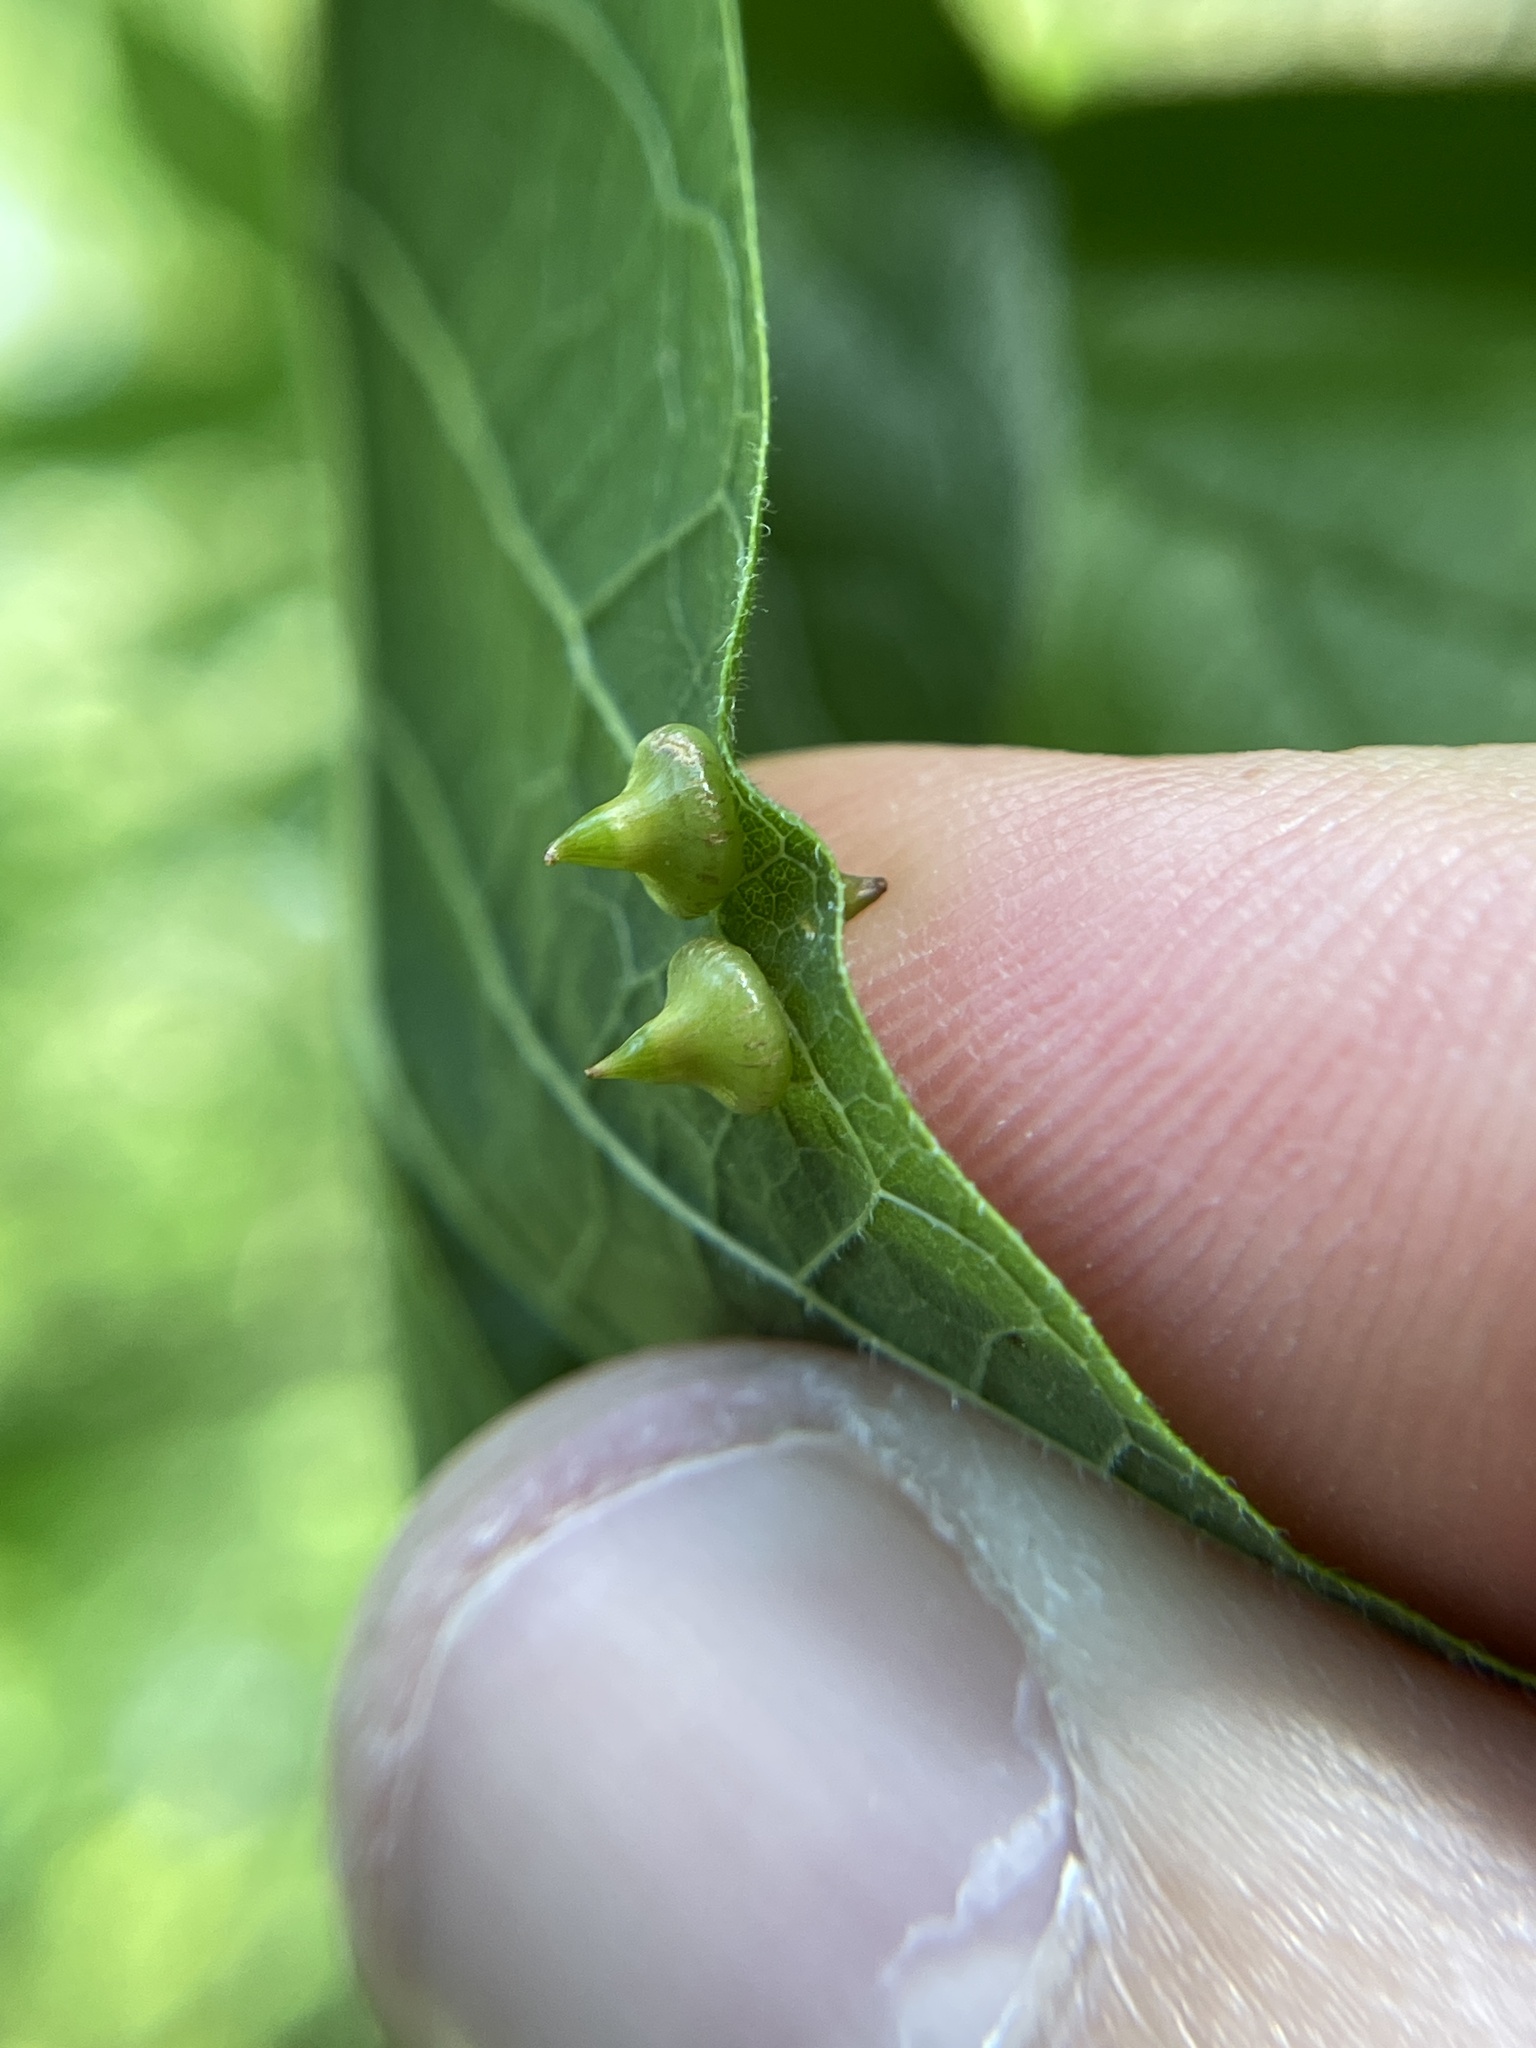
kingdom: Animalia
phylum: Arthropoda
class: Insecta
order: Diptera
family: Cecidomyiidae
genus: Celticecis
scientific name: Celticecis spiniformis
